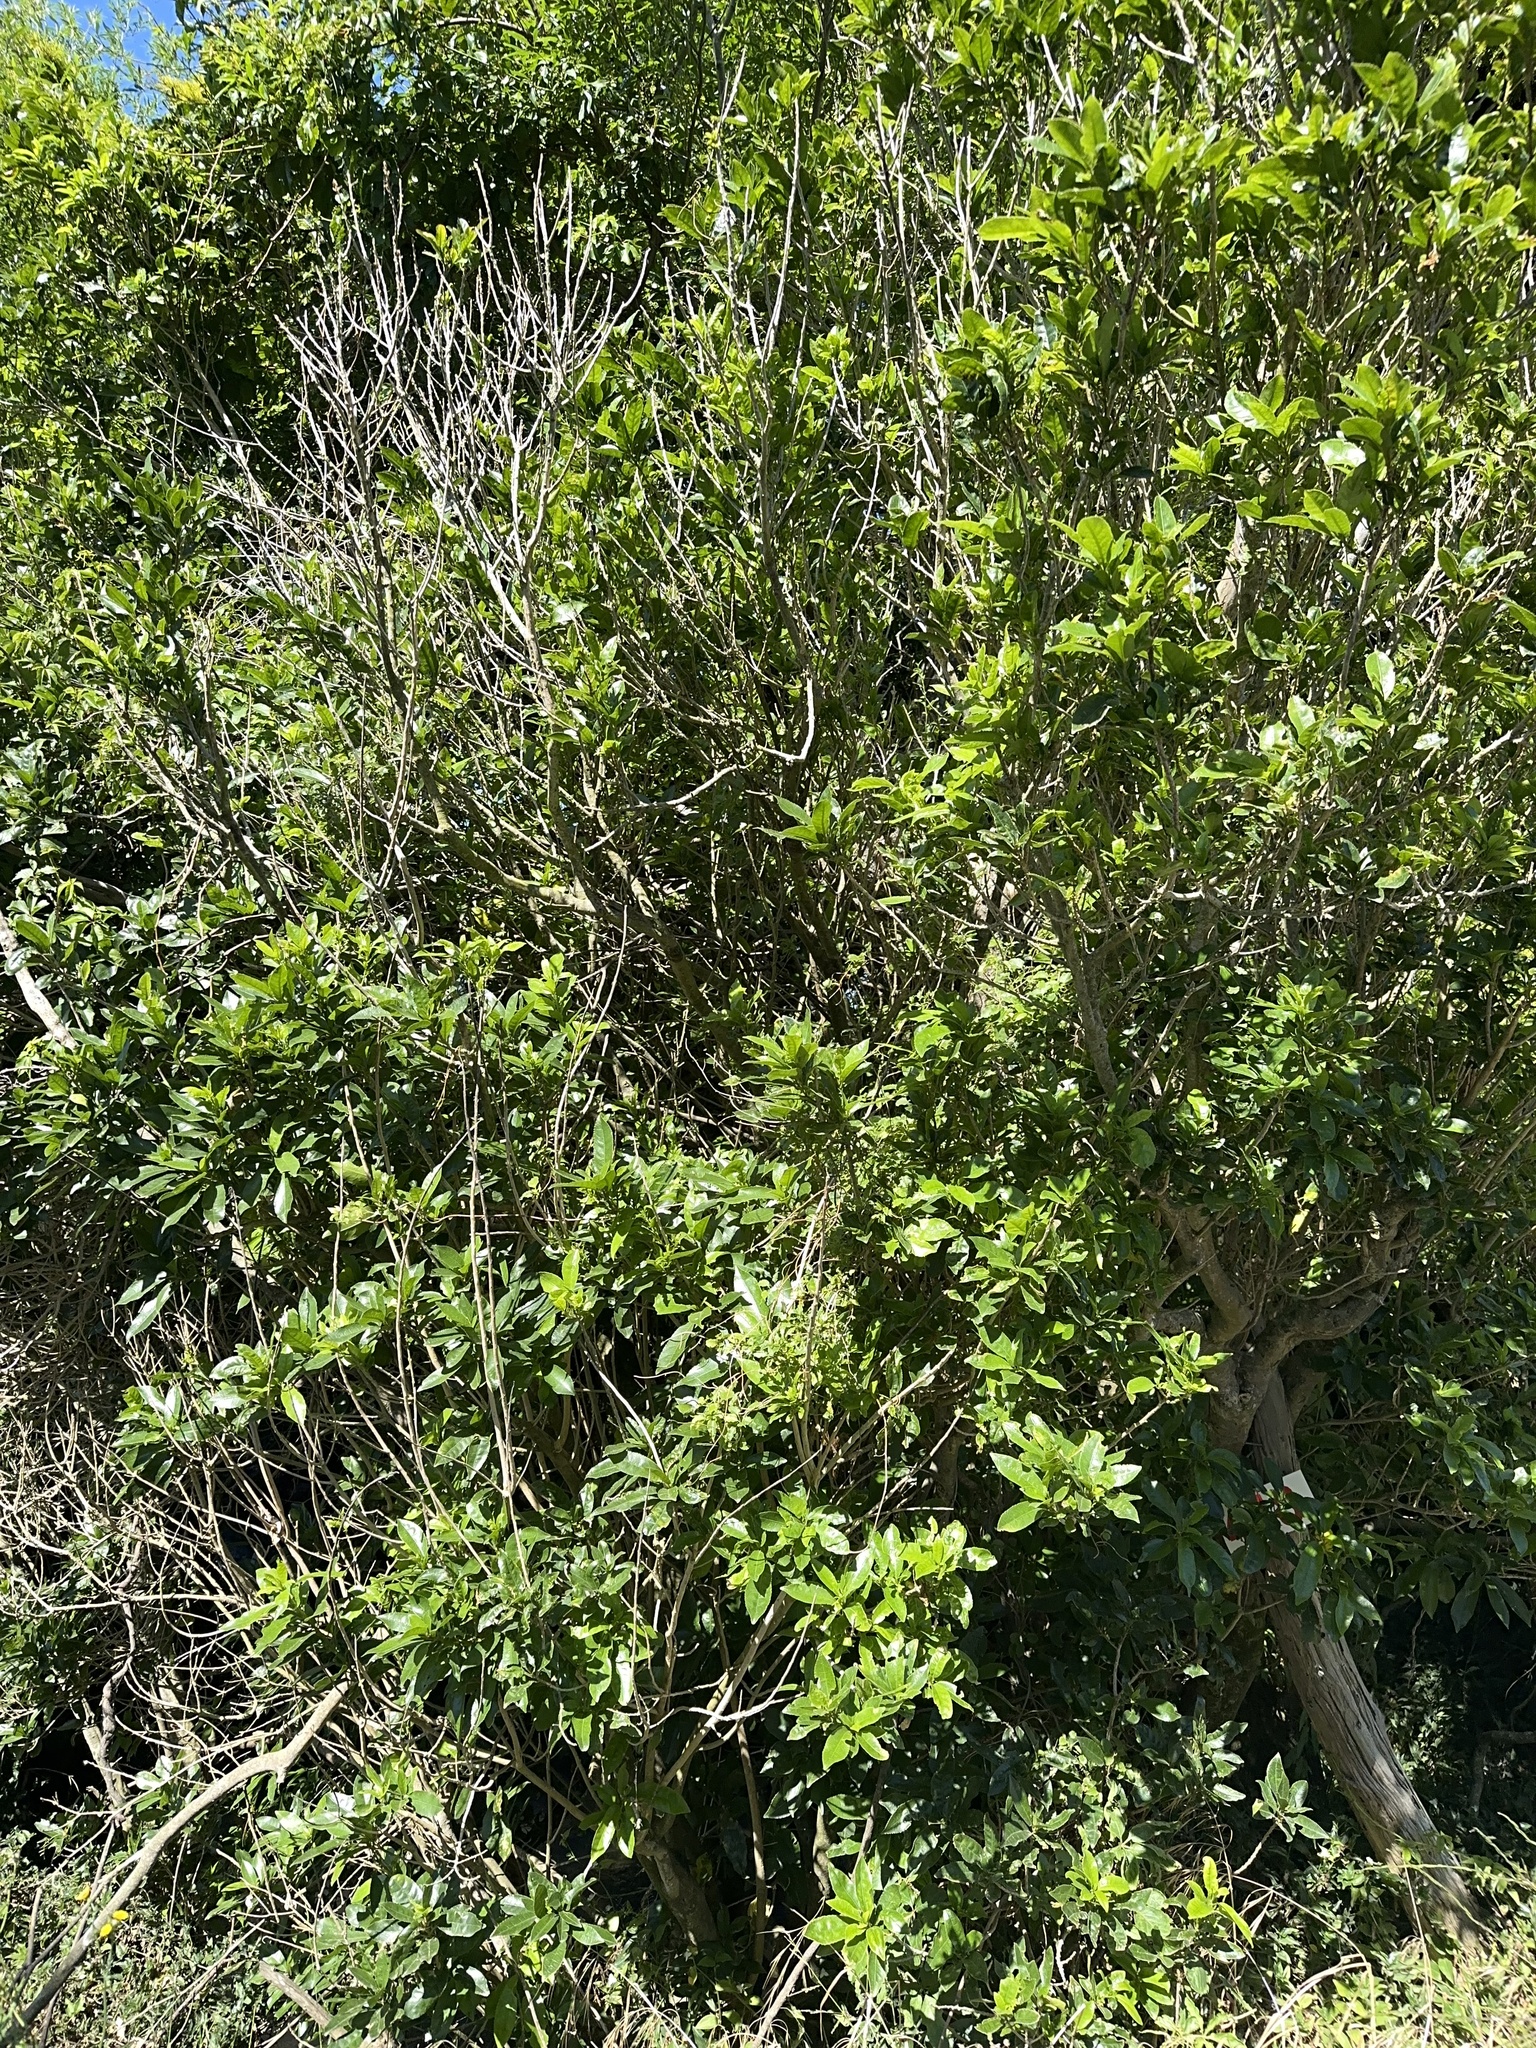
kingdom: Plantae
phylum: Tracheophyta
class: Magnoliopsida
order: Malpighiales
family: Violaceae
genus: Melicytus
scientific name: Melicytus ramiflorus
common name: Mahoe
